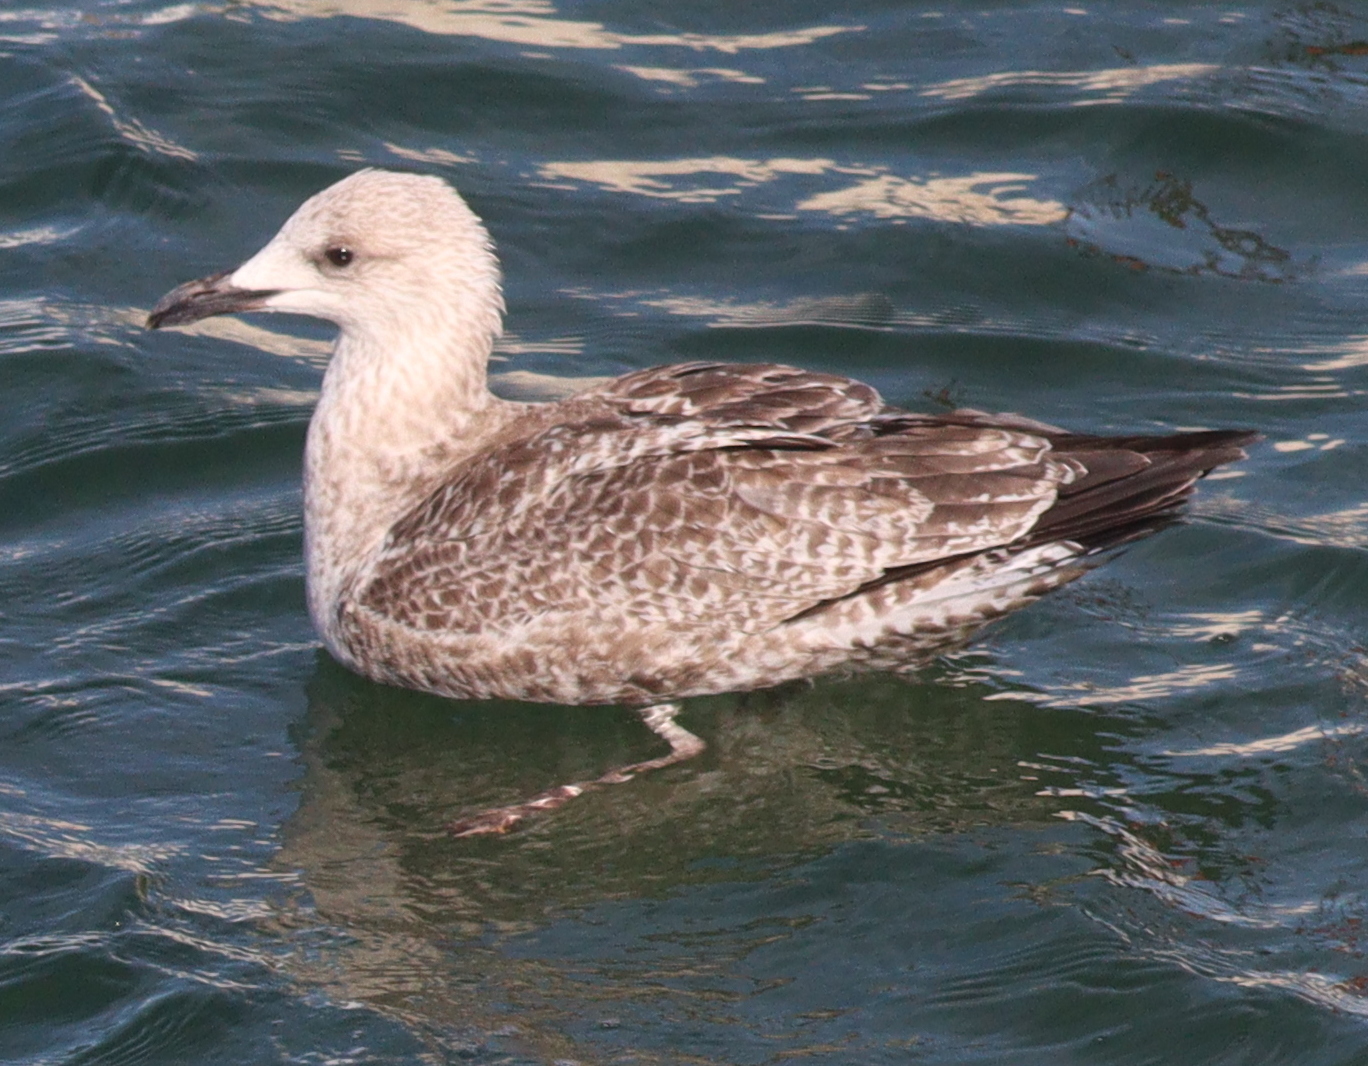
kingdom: Animalia
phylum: Chordata
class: Aves
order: Charadriiformes
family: Laridae
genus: Larus
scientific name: Larus argentatus
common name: Herring gull
